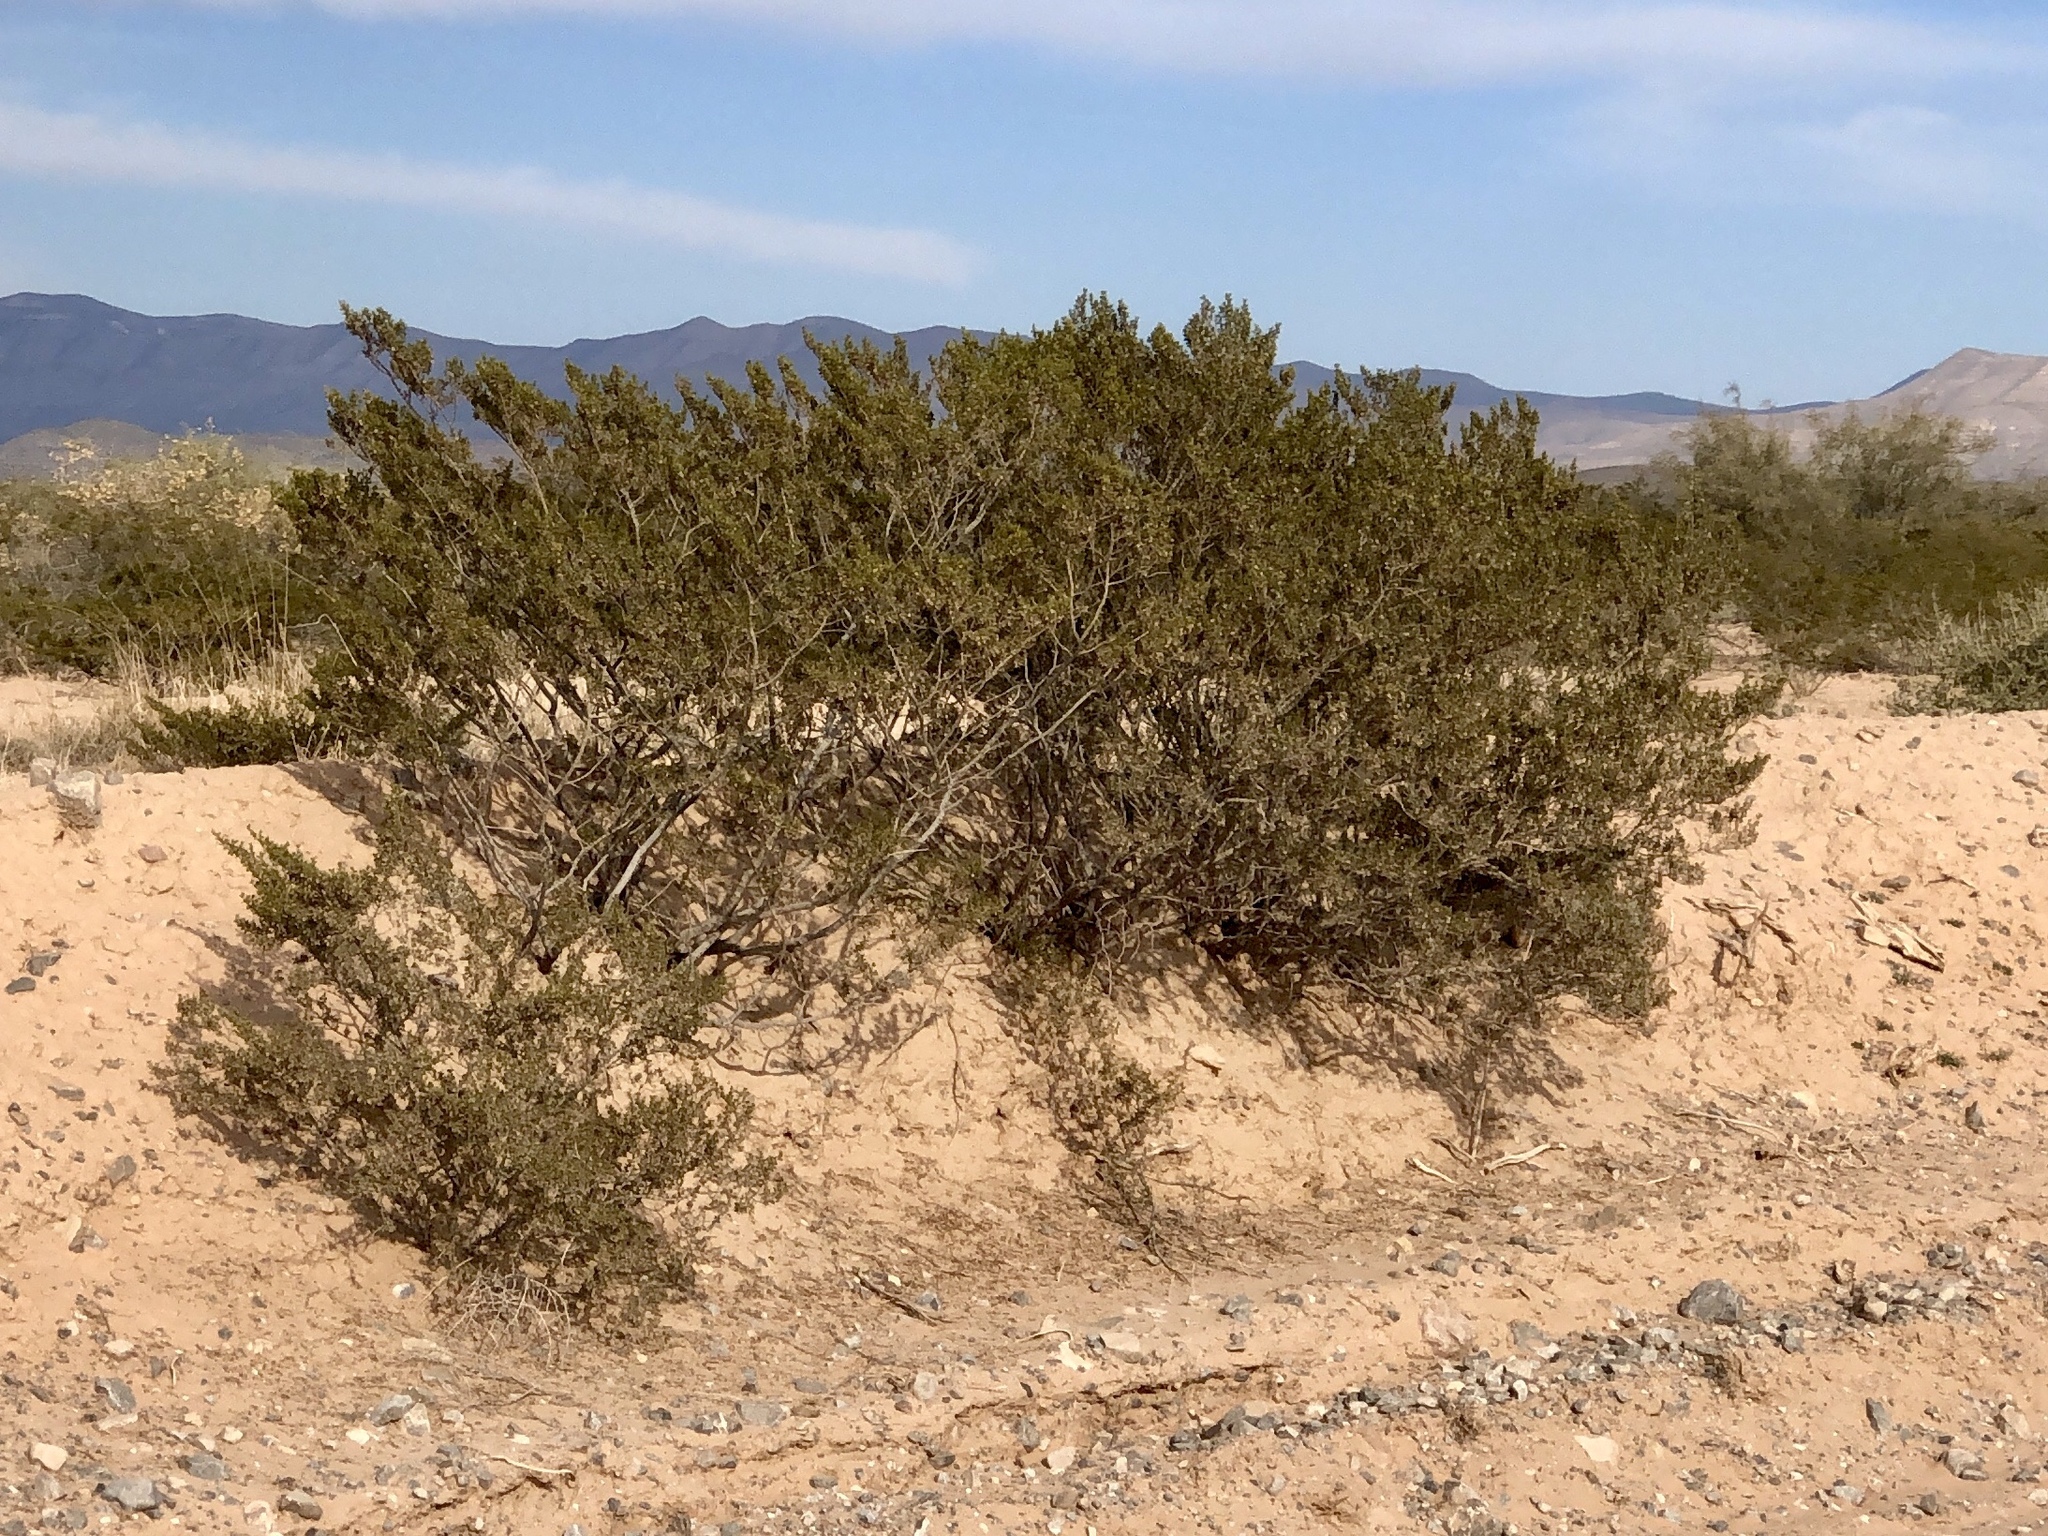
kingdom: Plantae
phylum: Tracheophyta
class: Magnoliopsida
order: Zygophyllales
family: Zygophyllaceae
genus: Larrea
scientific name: Larrea tridentata
